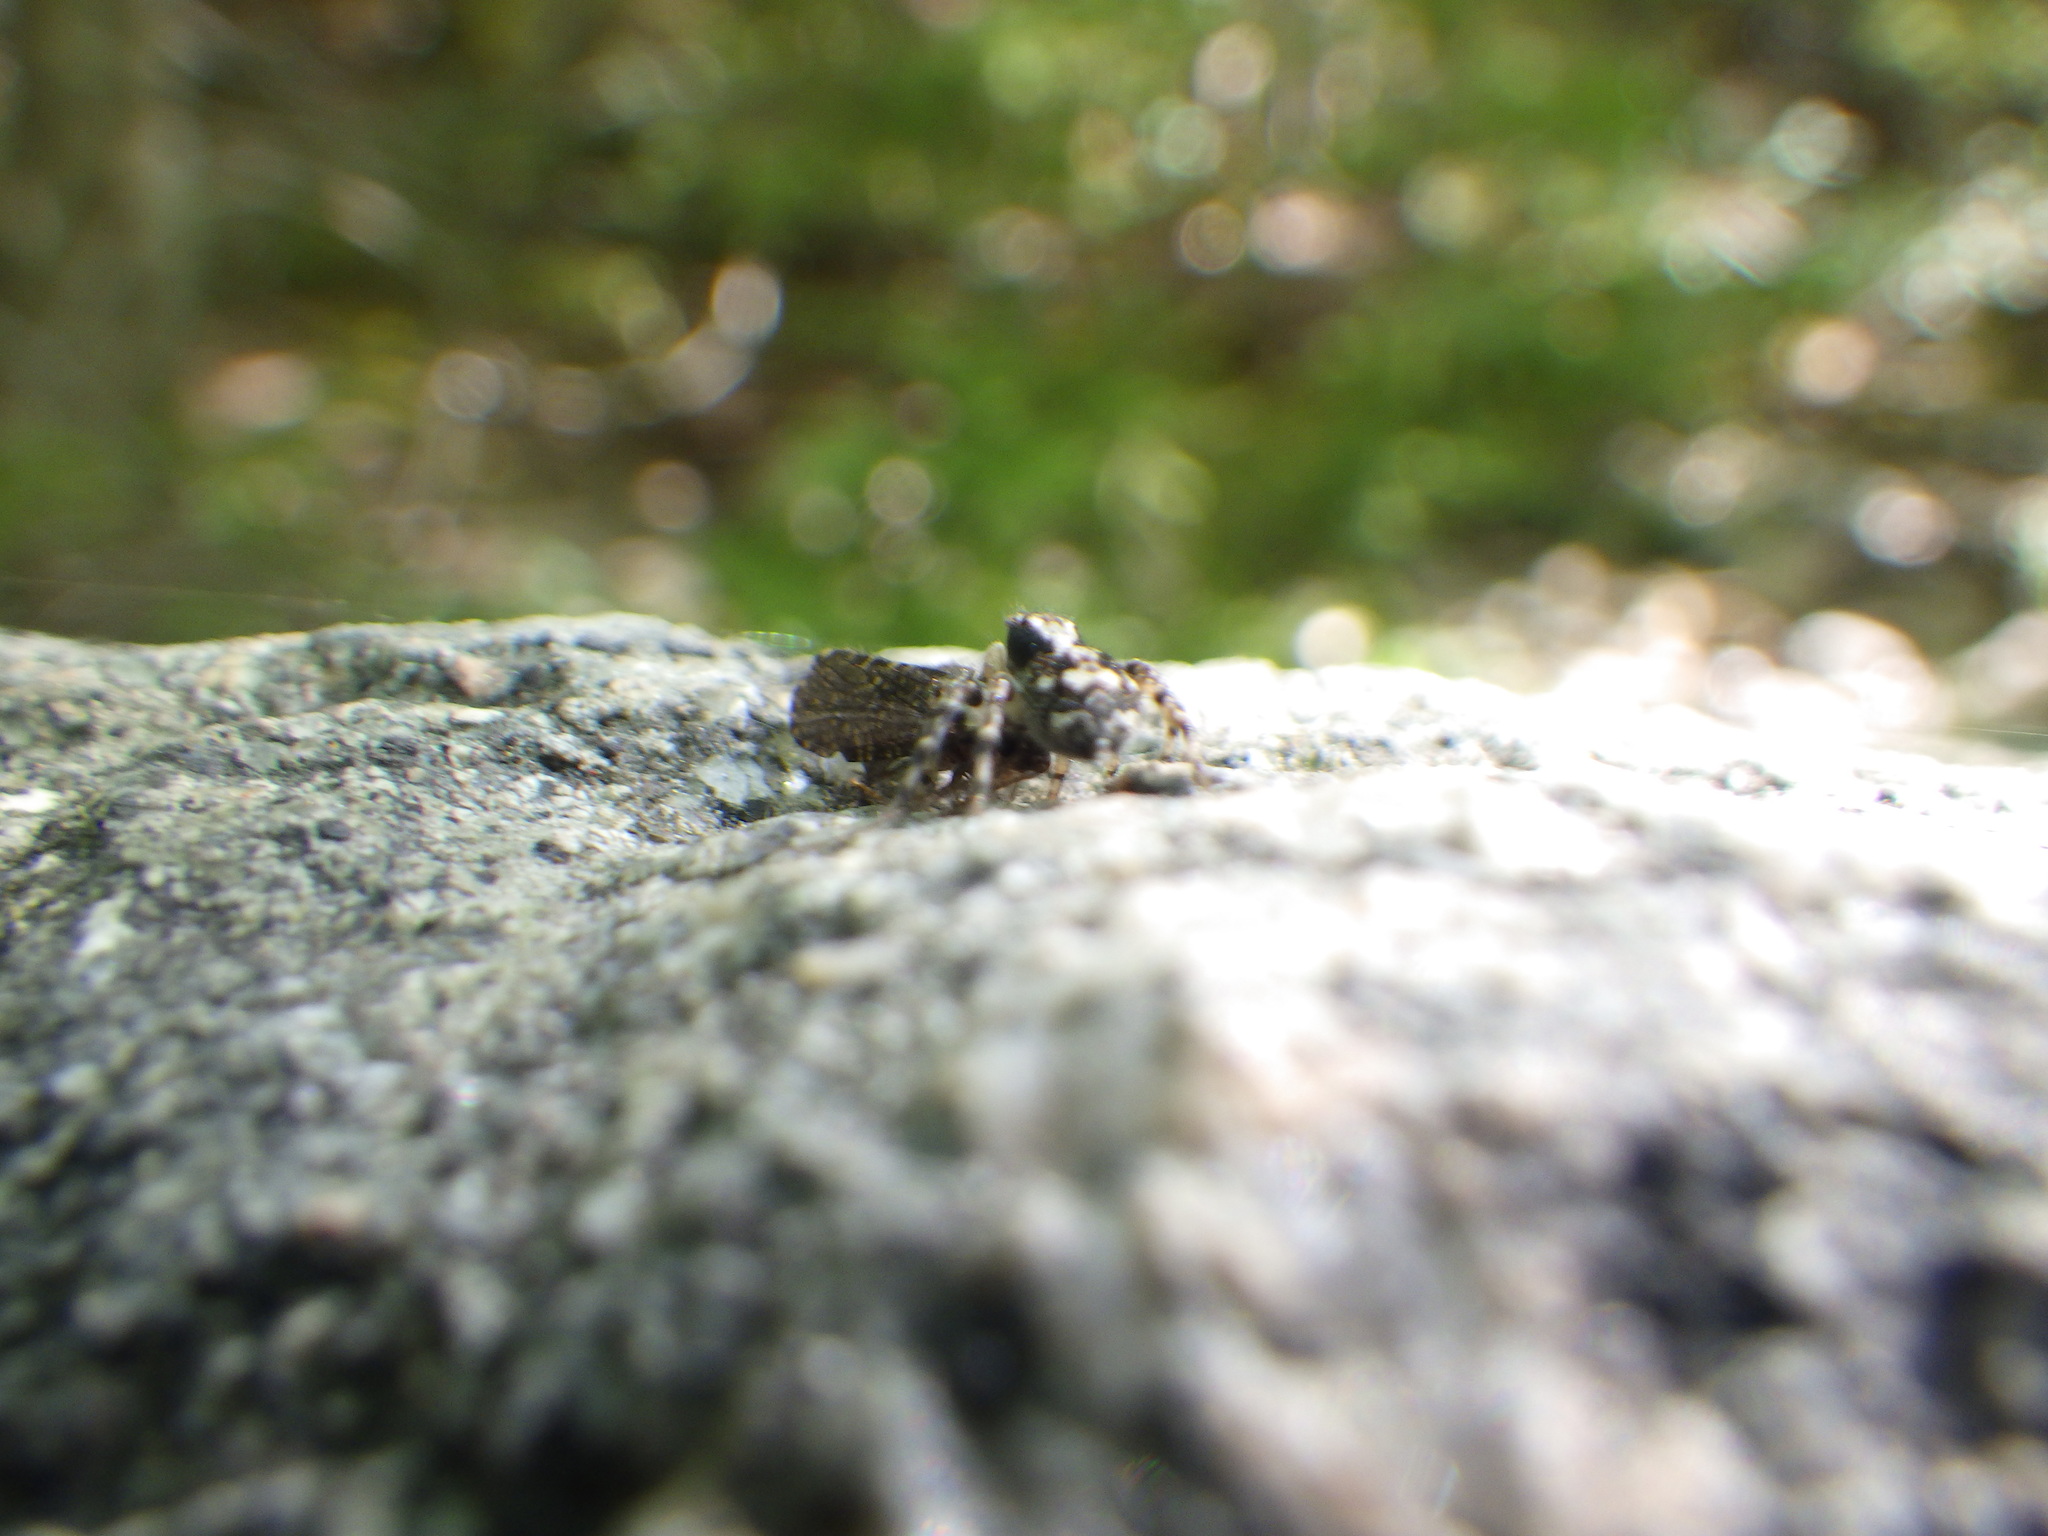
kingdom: Animalia
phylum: Arthropoda
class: Arachnida
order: Araneae
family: Salticidae
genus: Naphrys
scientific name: Naphrys pulex
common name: Flea jumping spider
